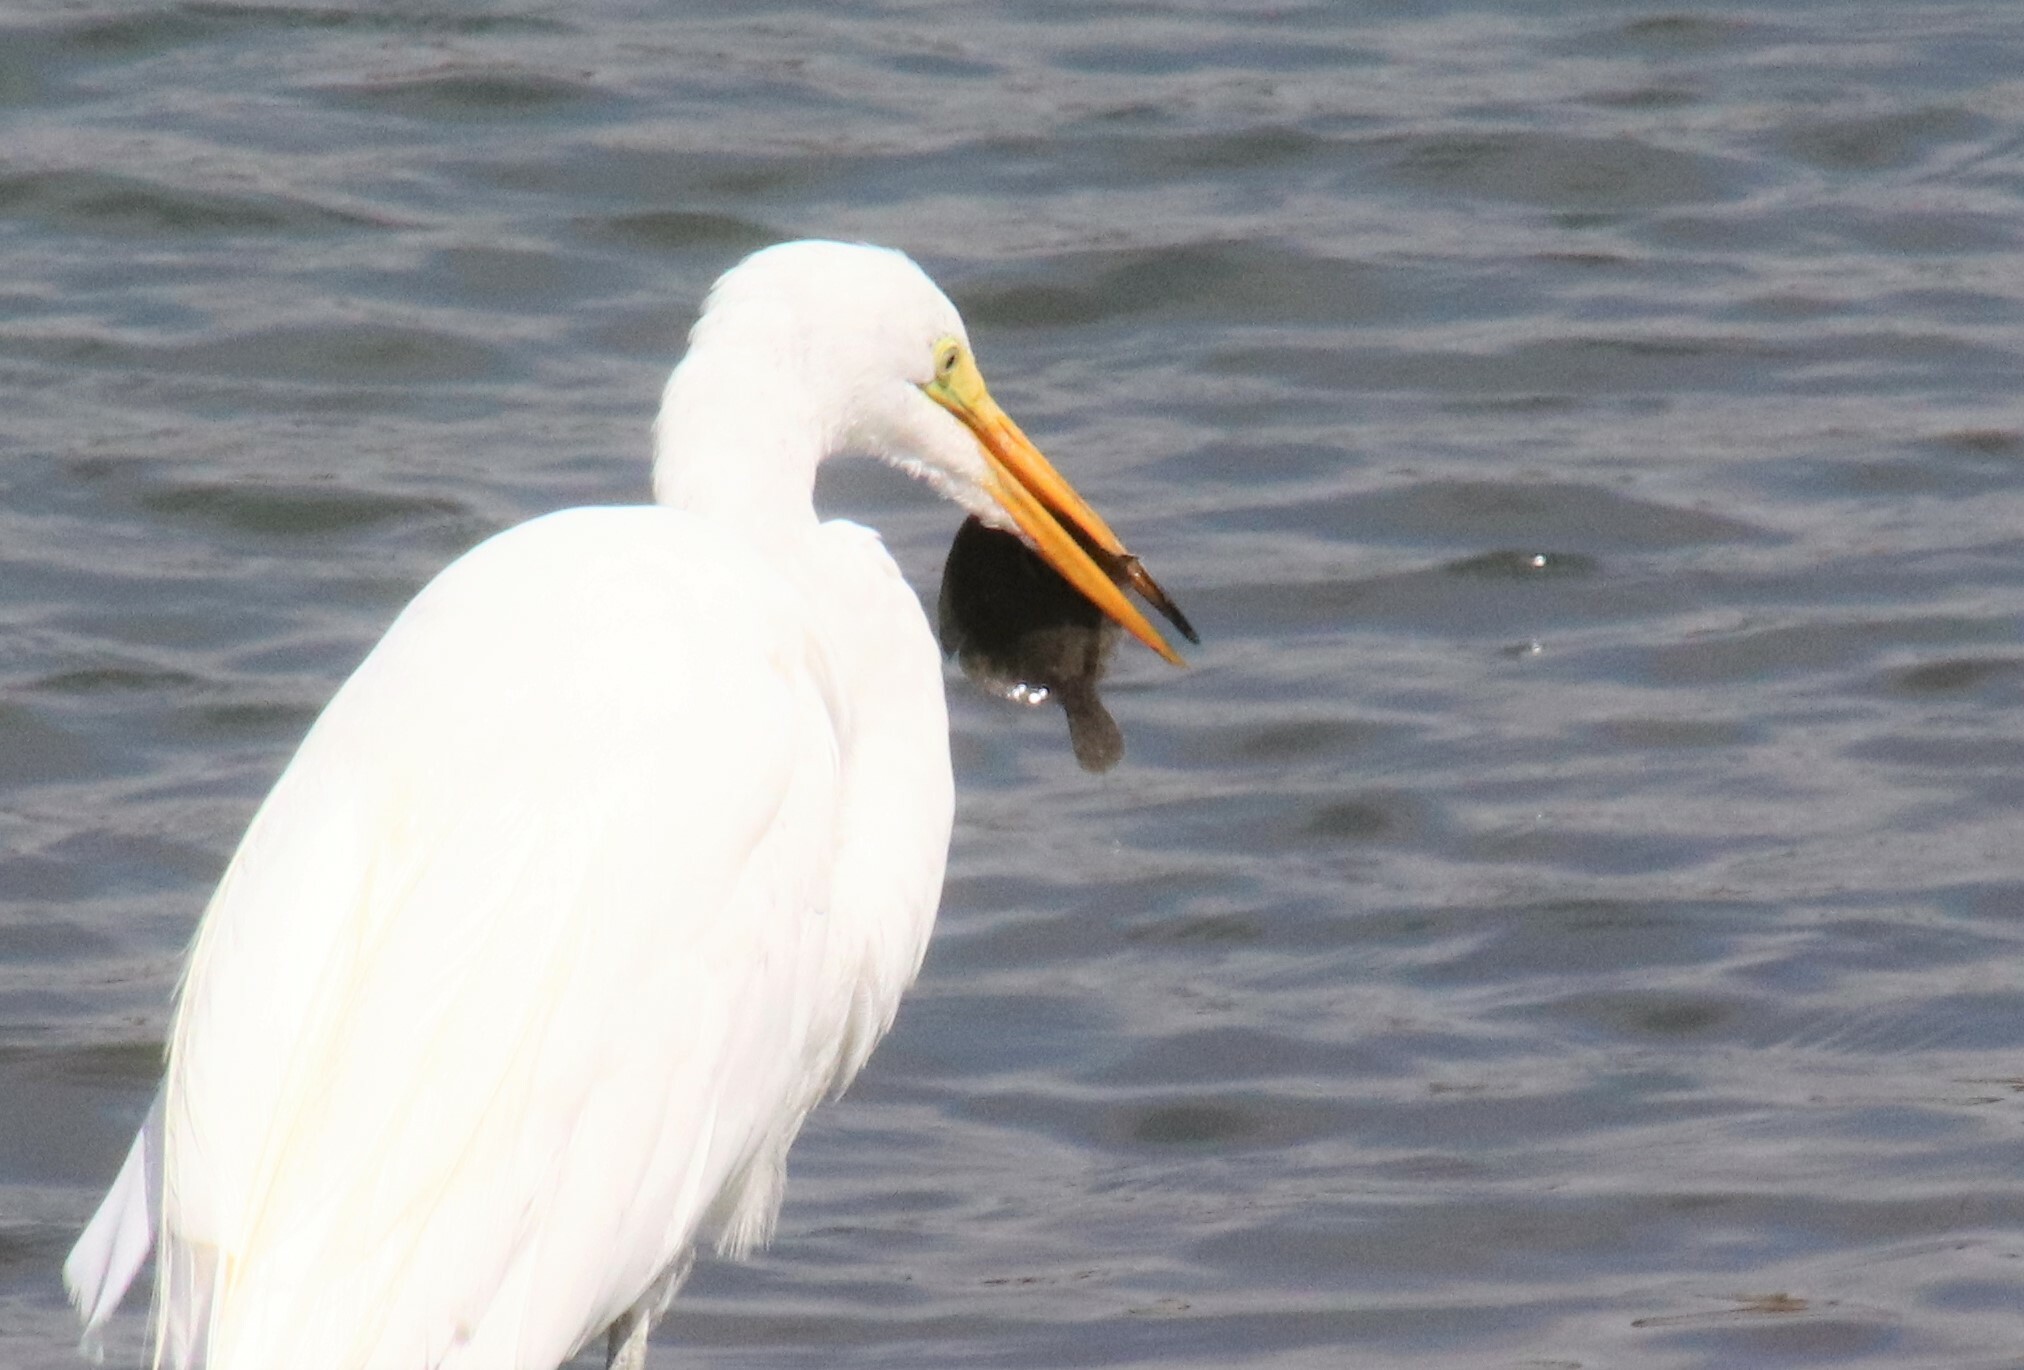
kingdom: Animalia
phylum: Chordata
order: Pleuronectiformes
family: Pleuronectidae
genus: Hypsopsetta
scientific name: Hypsopsetta guttulata
